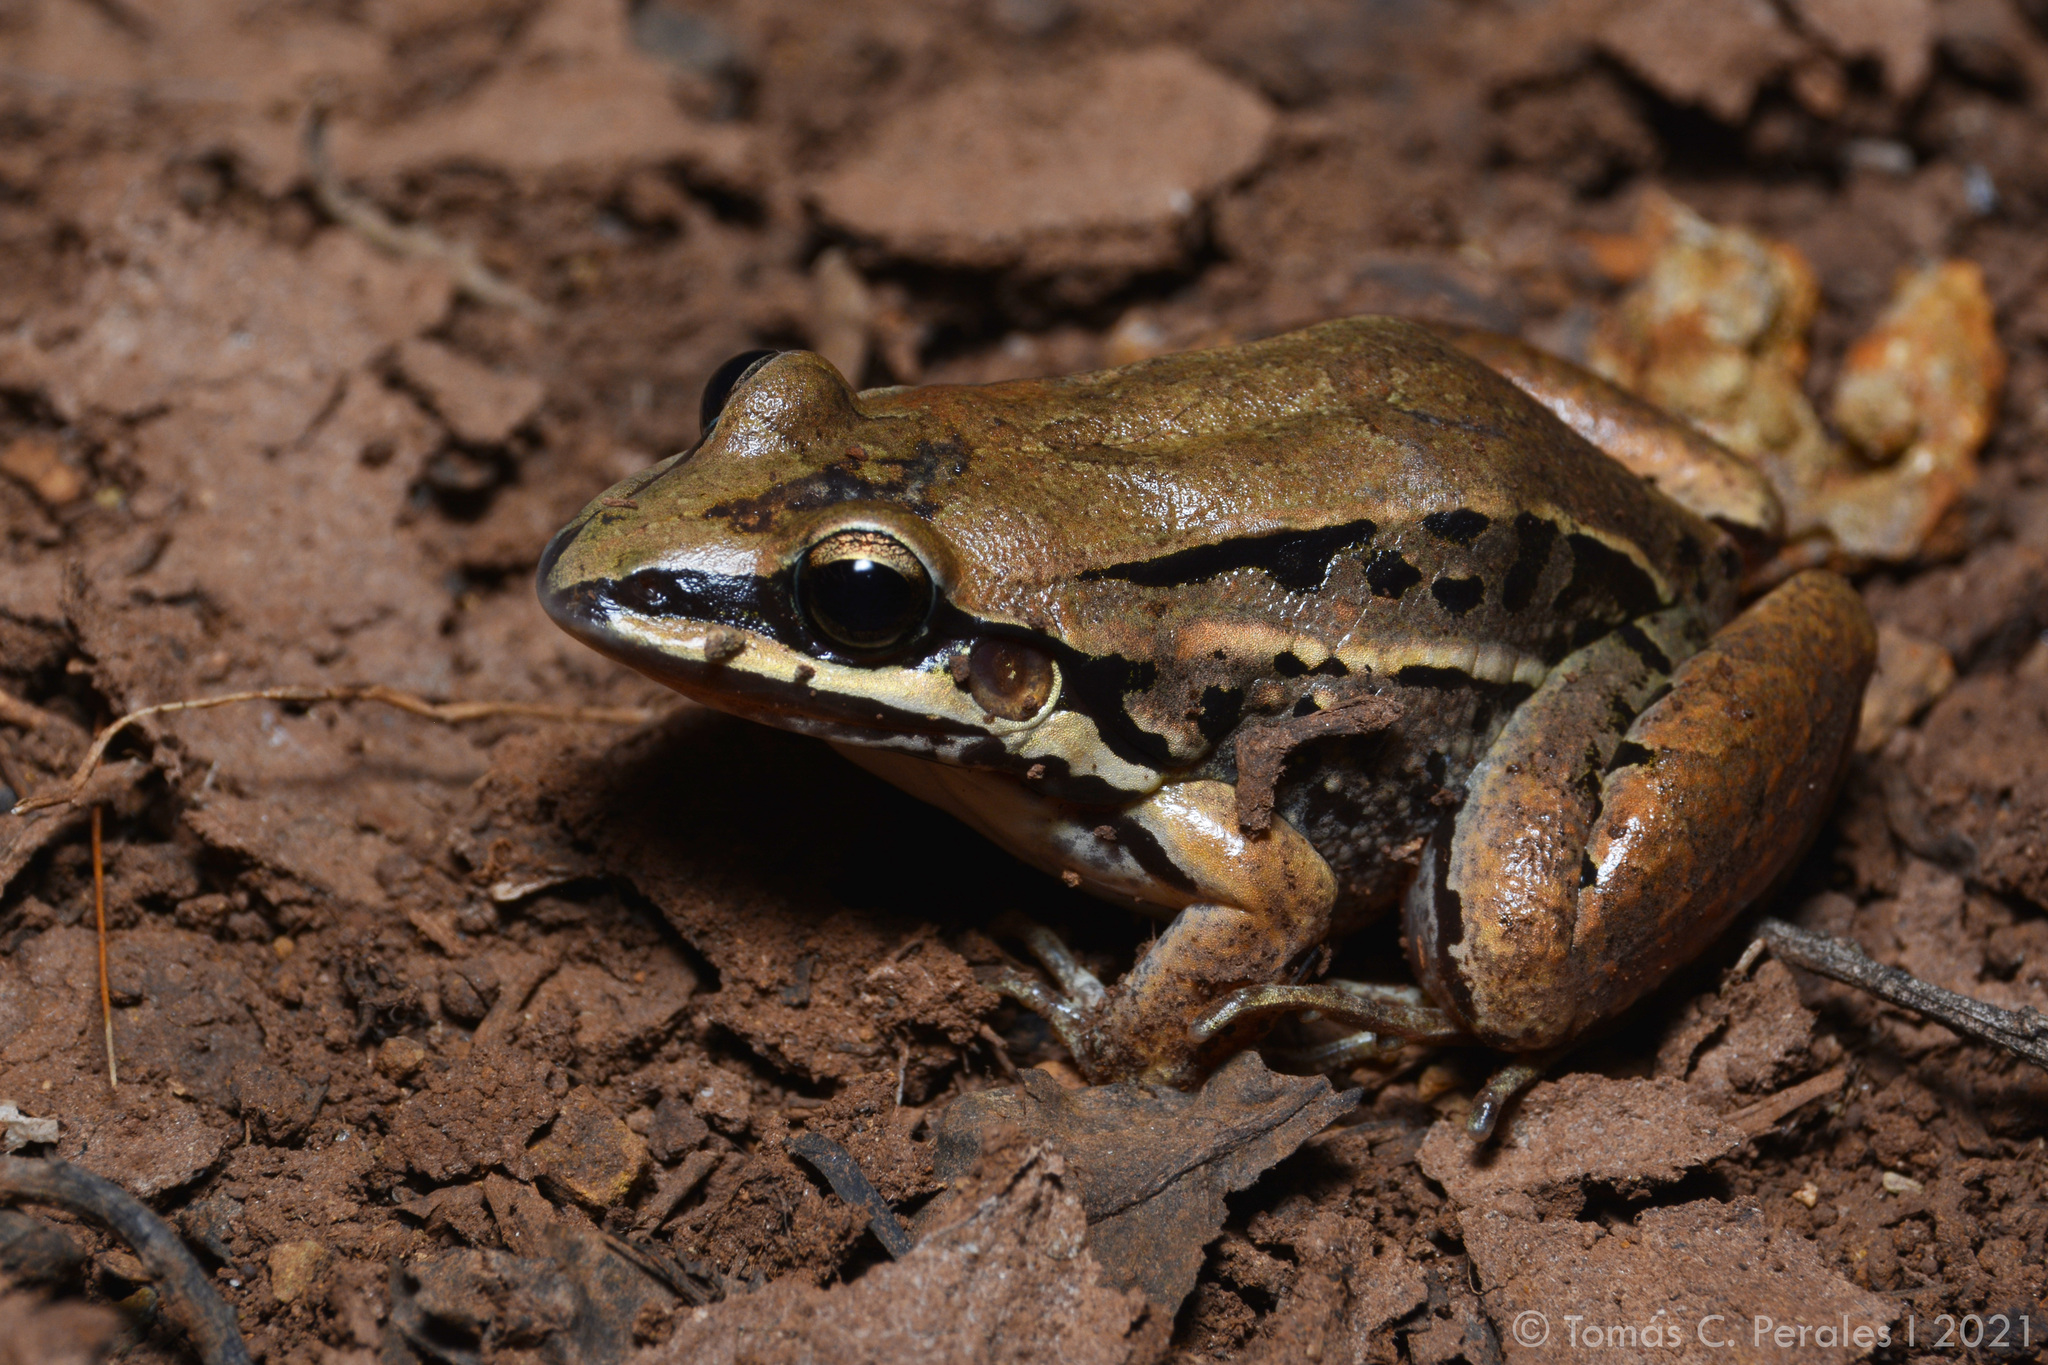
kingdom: Animalia
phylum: Chordata
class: Amphibia
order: Anura
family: Leptodactylidae
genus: Leptodactylus
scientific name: Leptodactylus elenae
